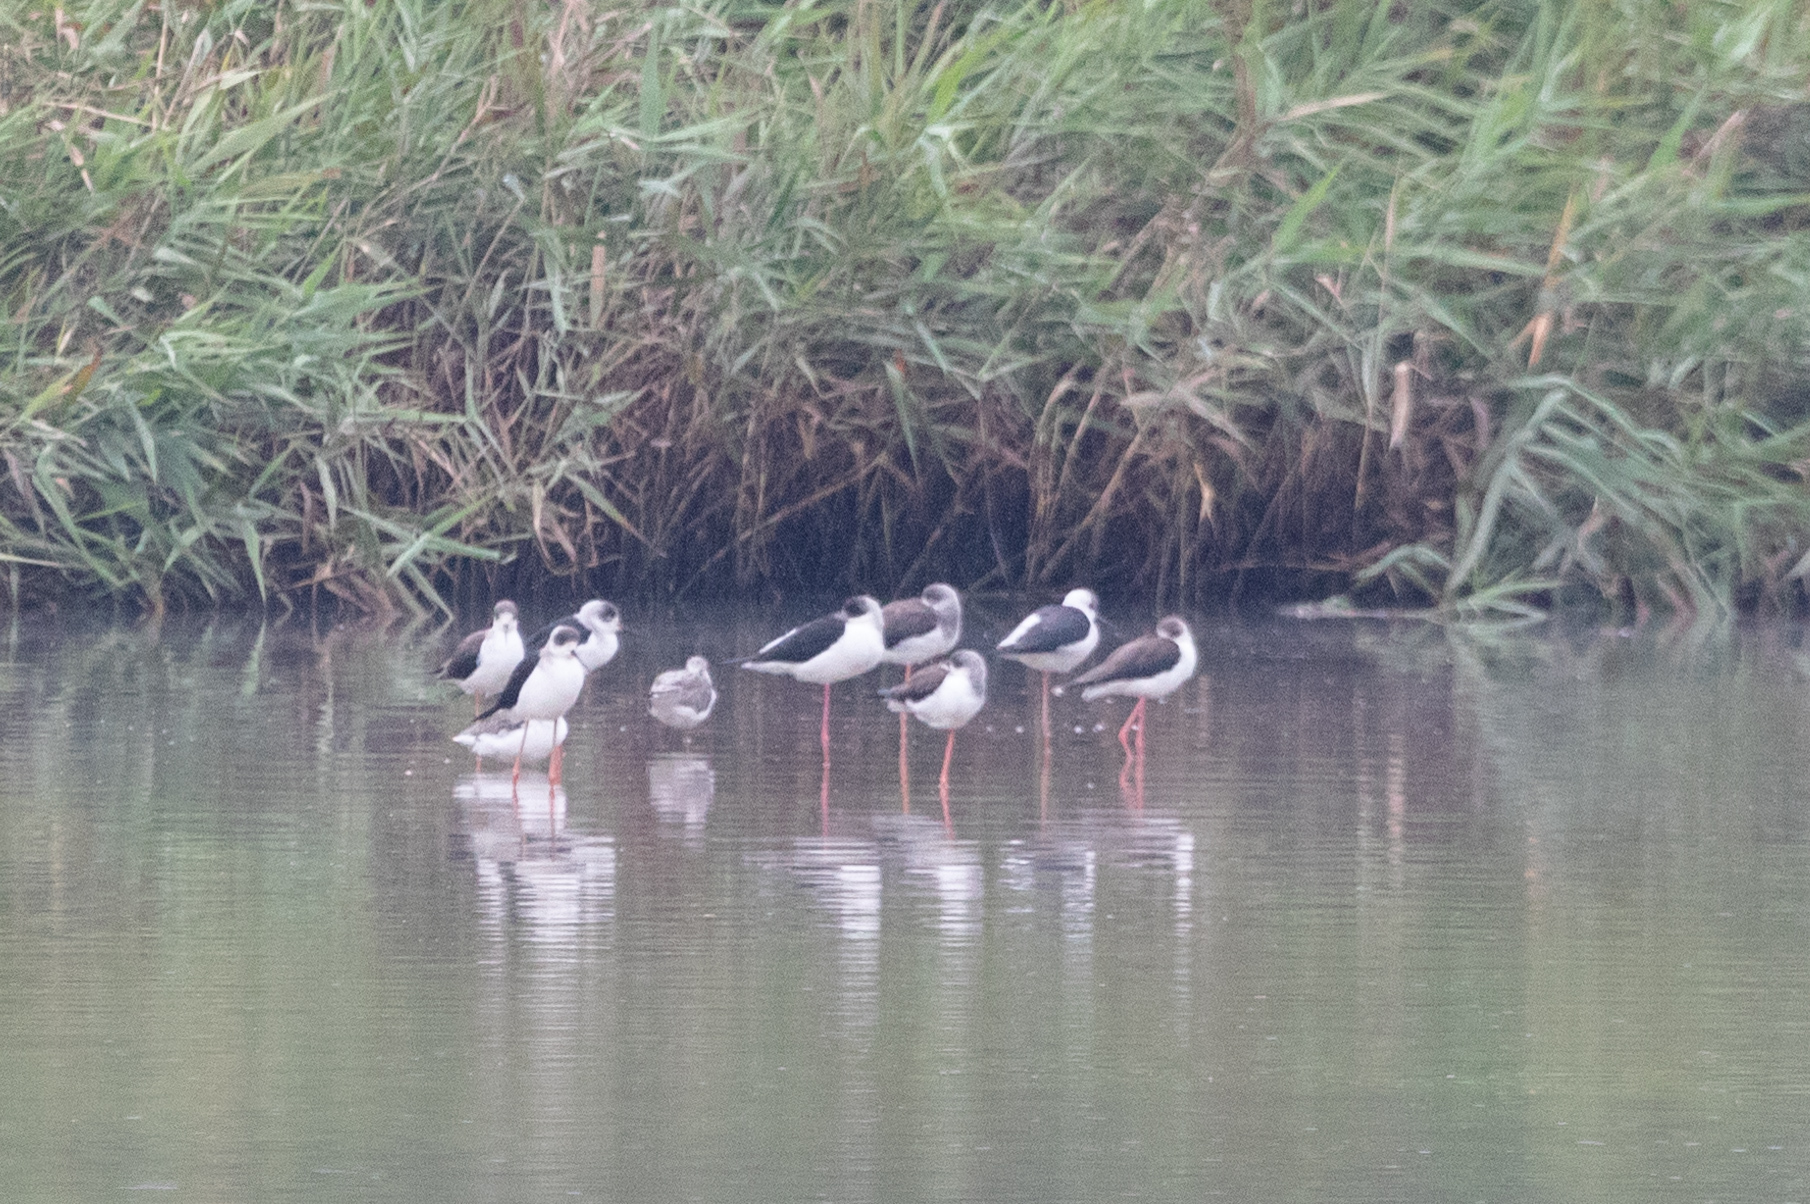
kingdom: Animalia
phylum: Chordata
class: Aves
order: Charadriiformes
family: Recurvirostridae
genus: Himantopus
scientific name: Himantopus himantopus
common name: Black-winged stilt
